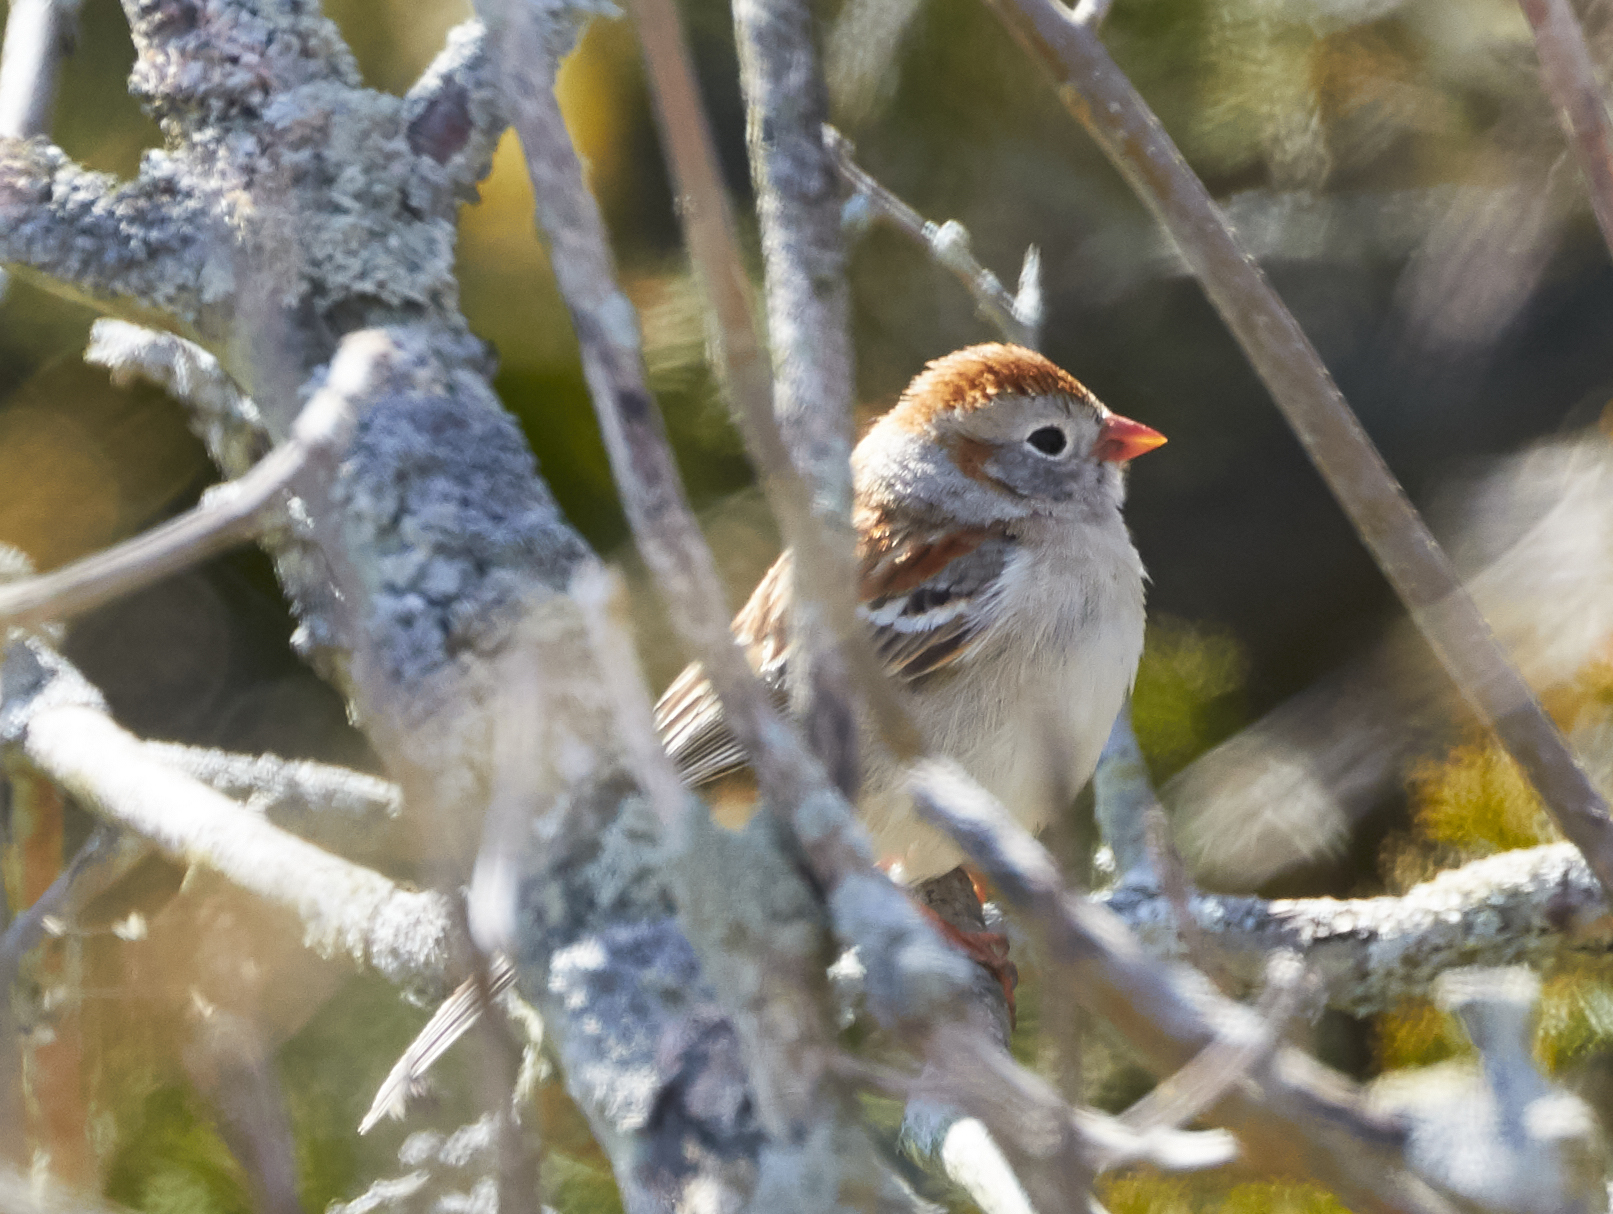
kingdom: Animalia
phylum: Chordata
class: Aves
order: Passeriformes
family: Passerellidae
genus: Spizella
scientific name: Spizella pusilla
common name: Field sparrow
